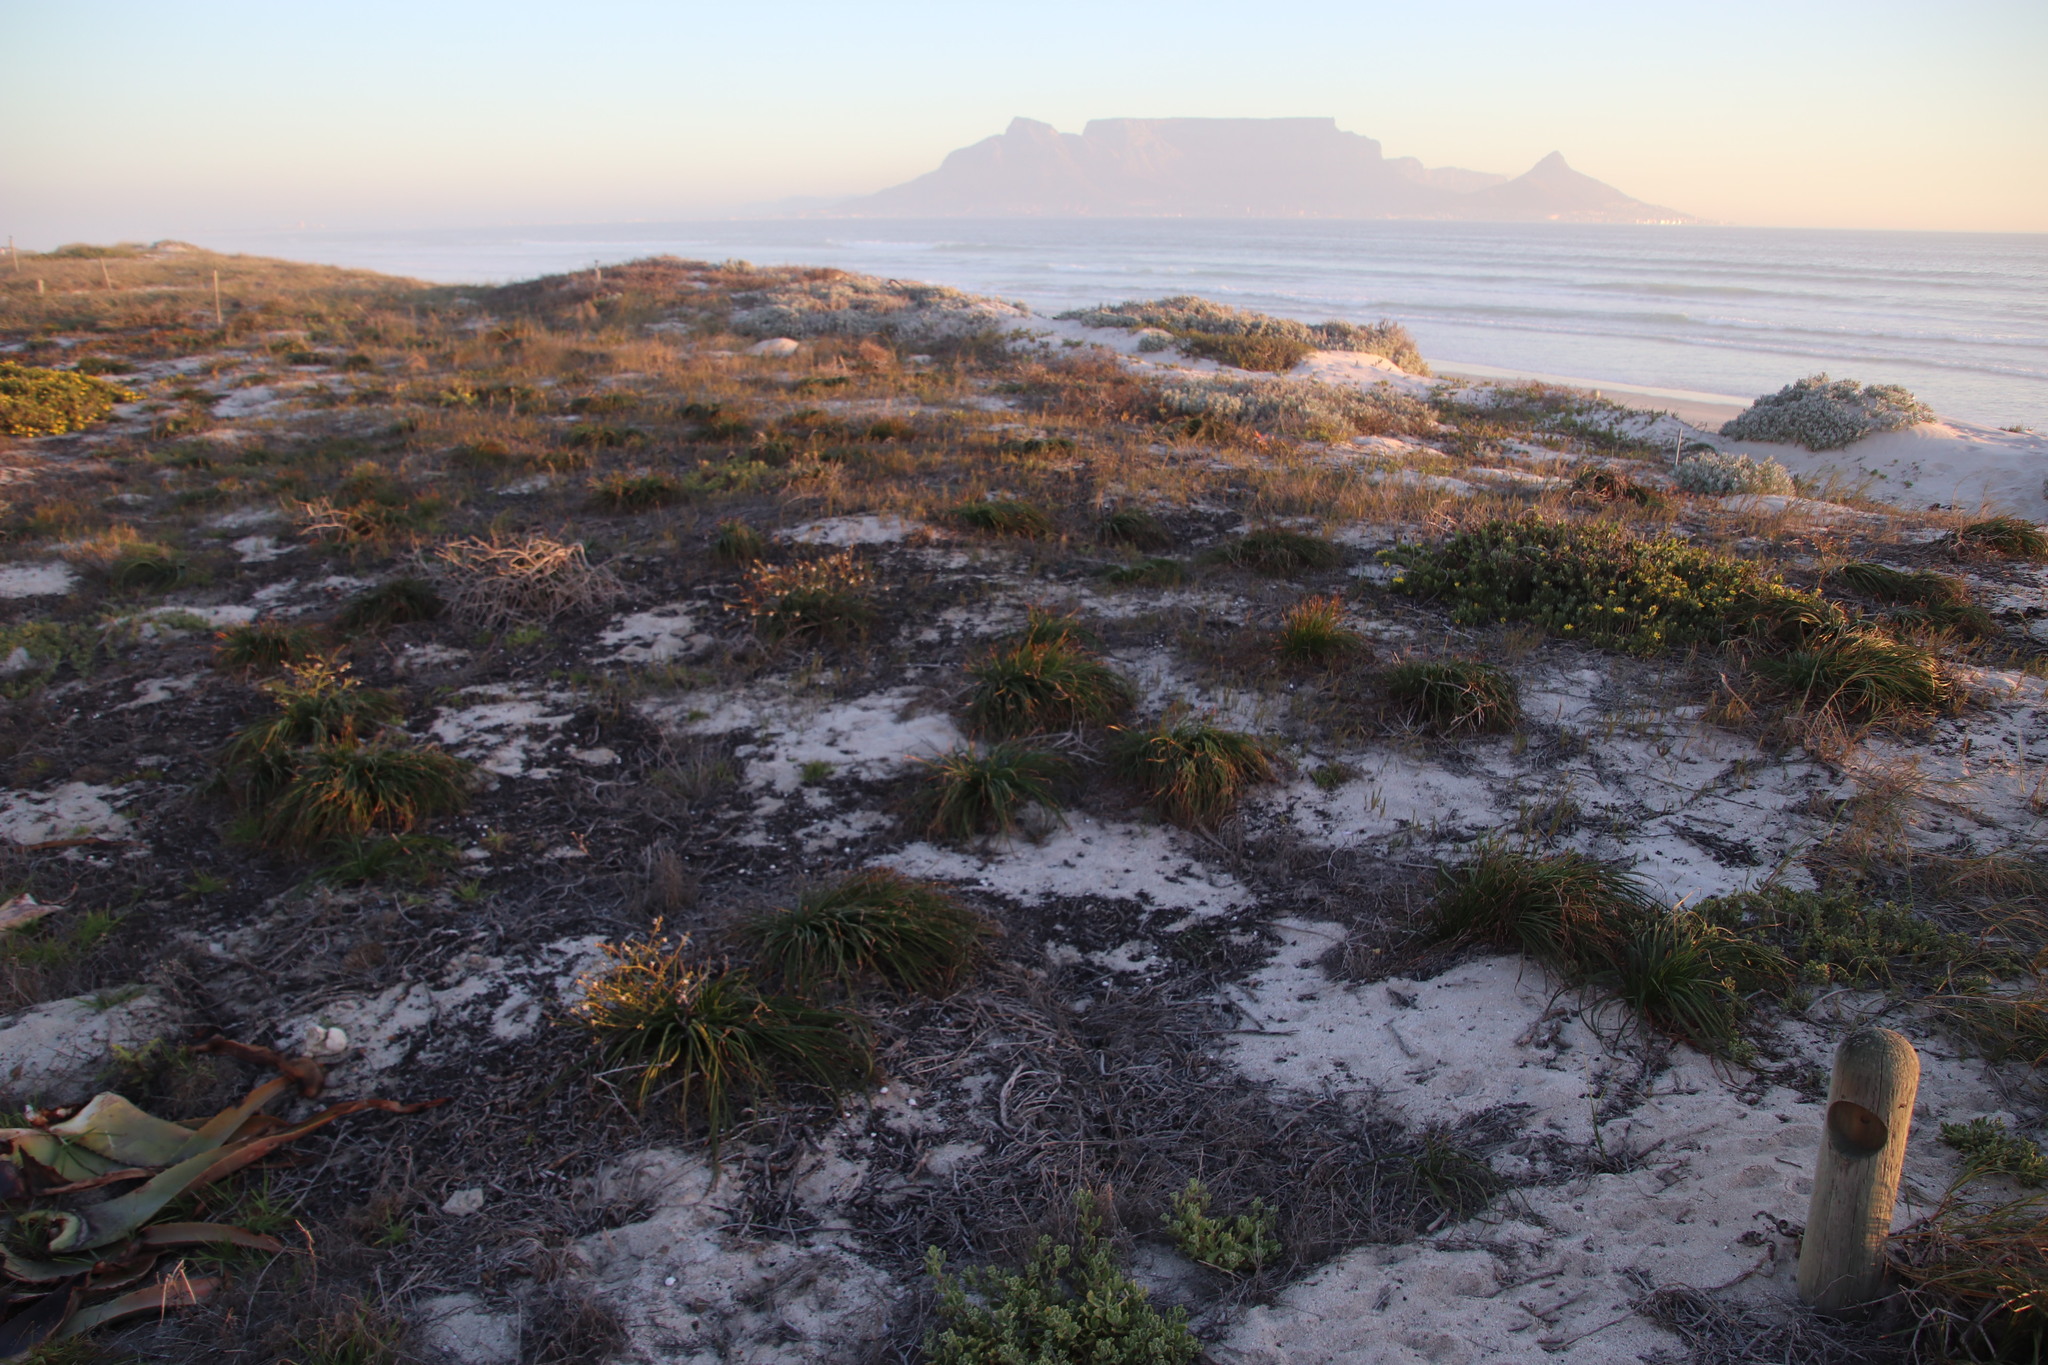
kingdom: Plantae
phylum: Tracheophyta
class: Liliopsida
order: Asparagales
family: Asphodelaceae
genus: Trachyandra
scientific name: Trachyandra divaricata
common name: Dune onionweed
